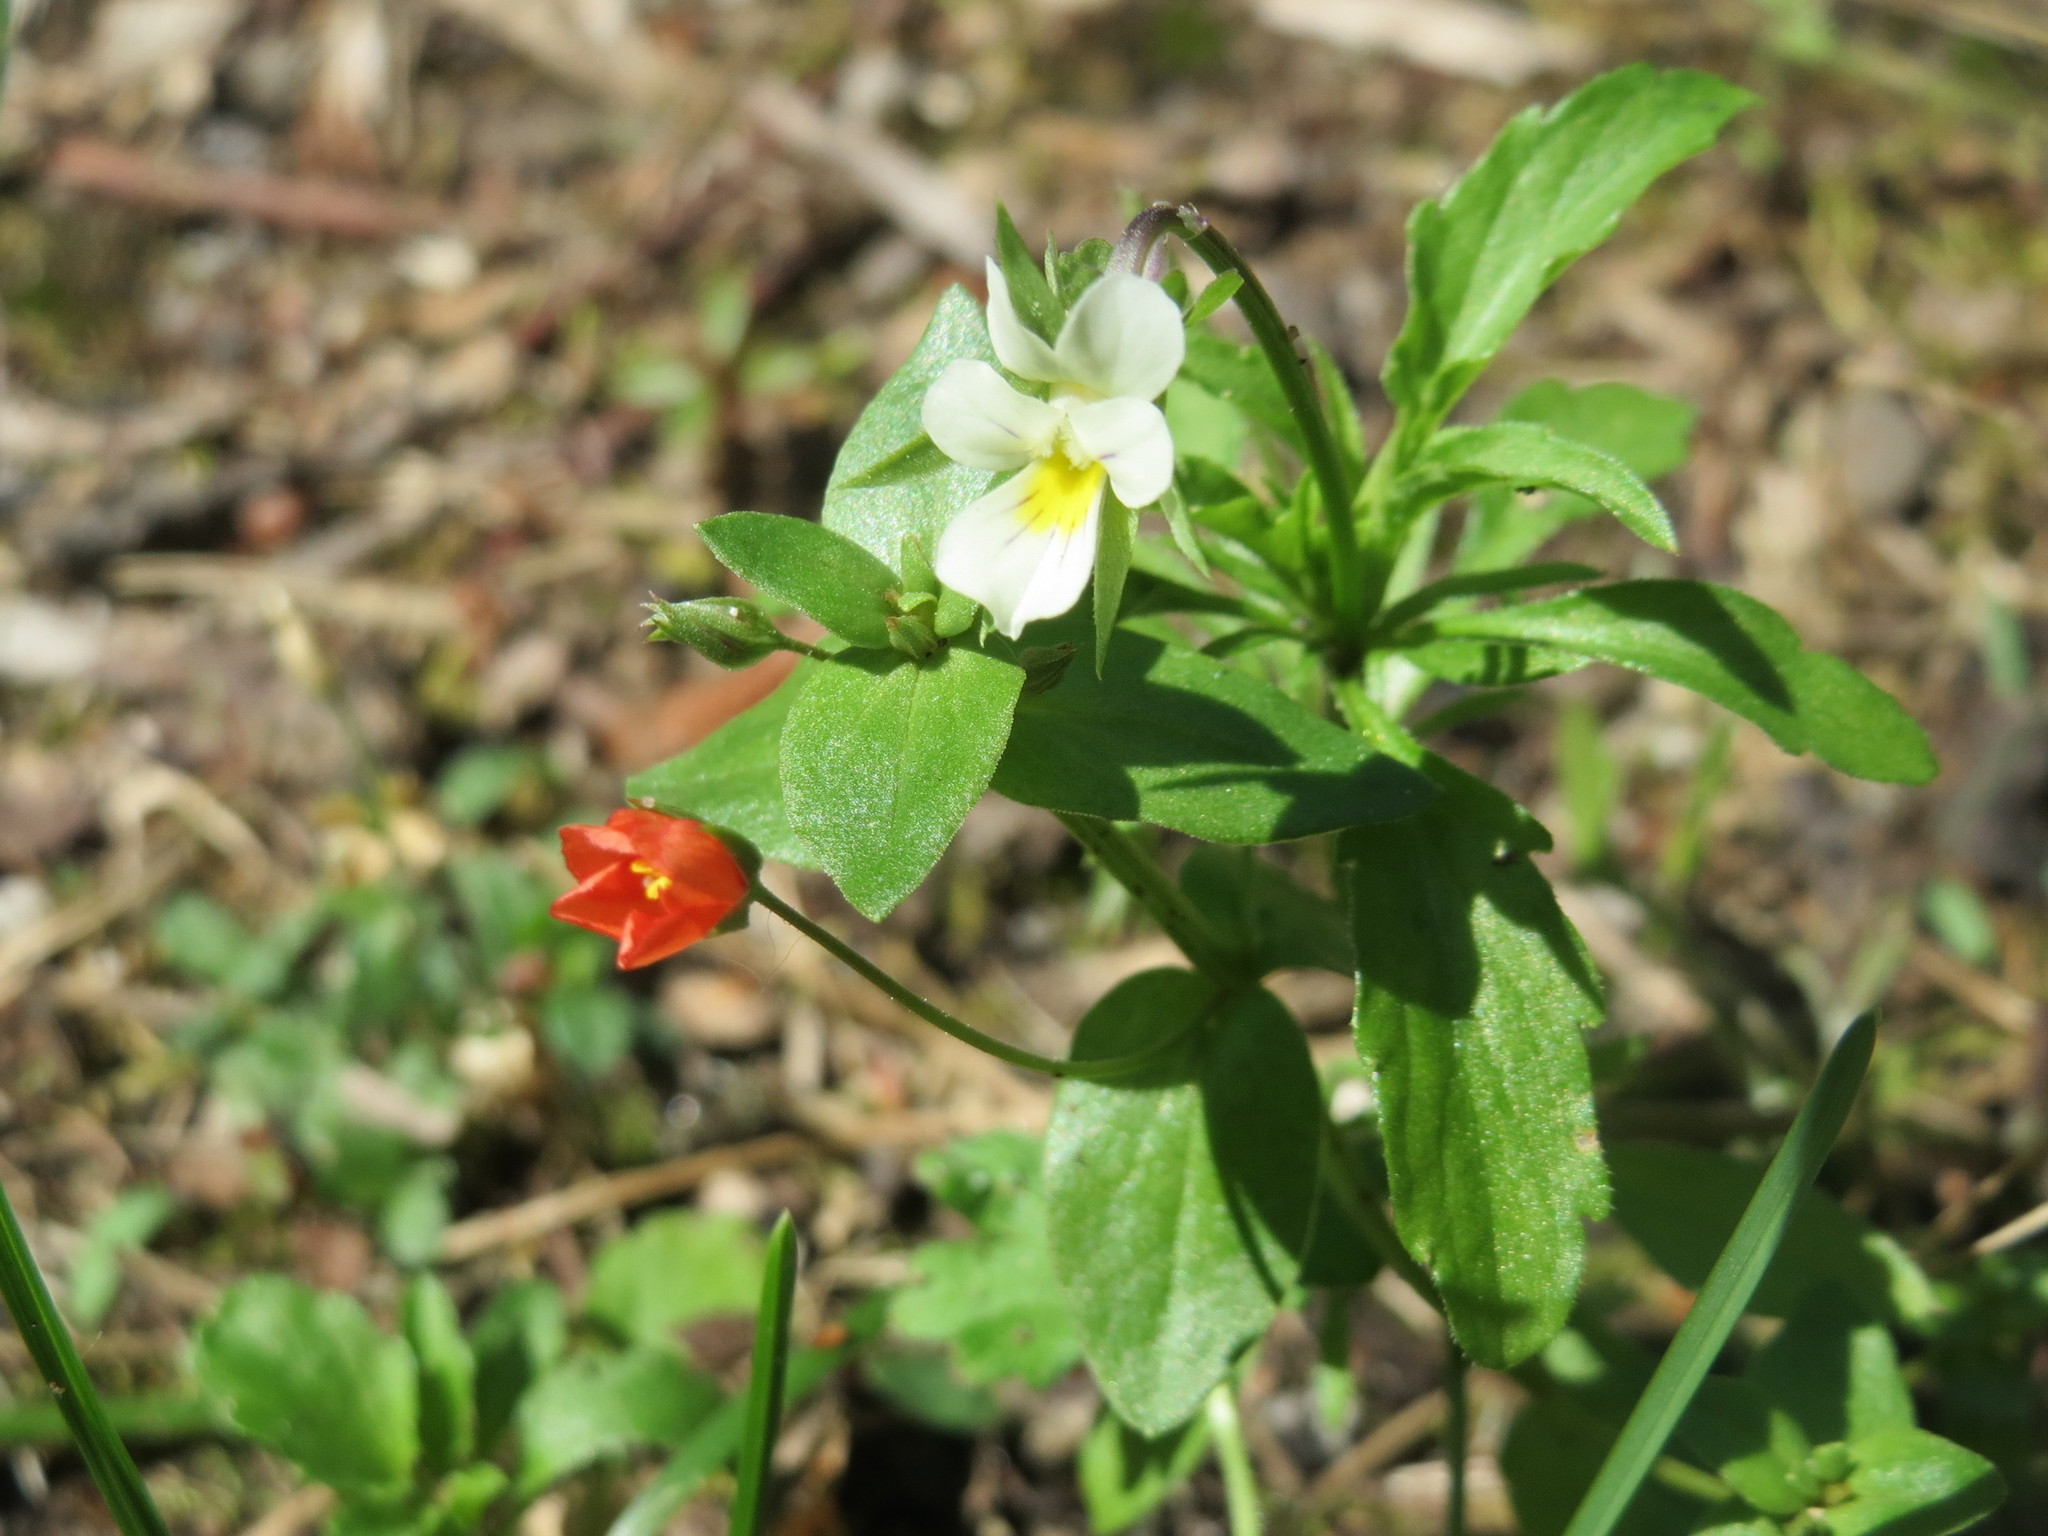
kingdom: Plantae
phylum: Tracheophyta
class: Magnoliopsida
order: Ericales
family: Primulaceae
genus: Lysimachia
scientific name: Lysimachia arvensis
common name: Scarlet pimpernel
